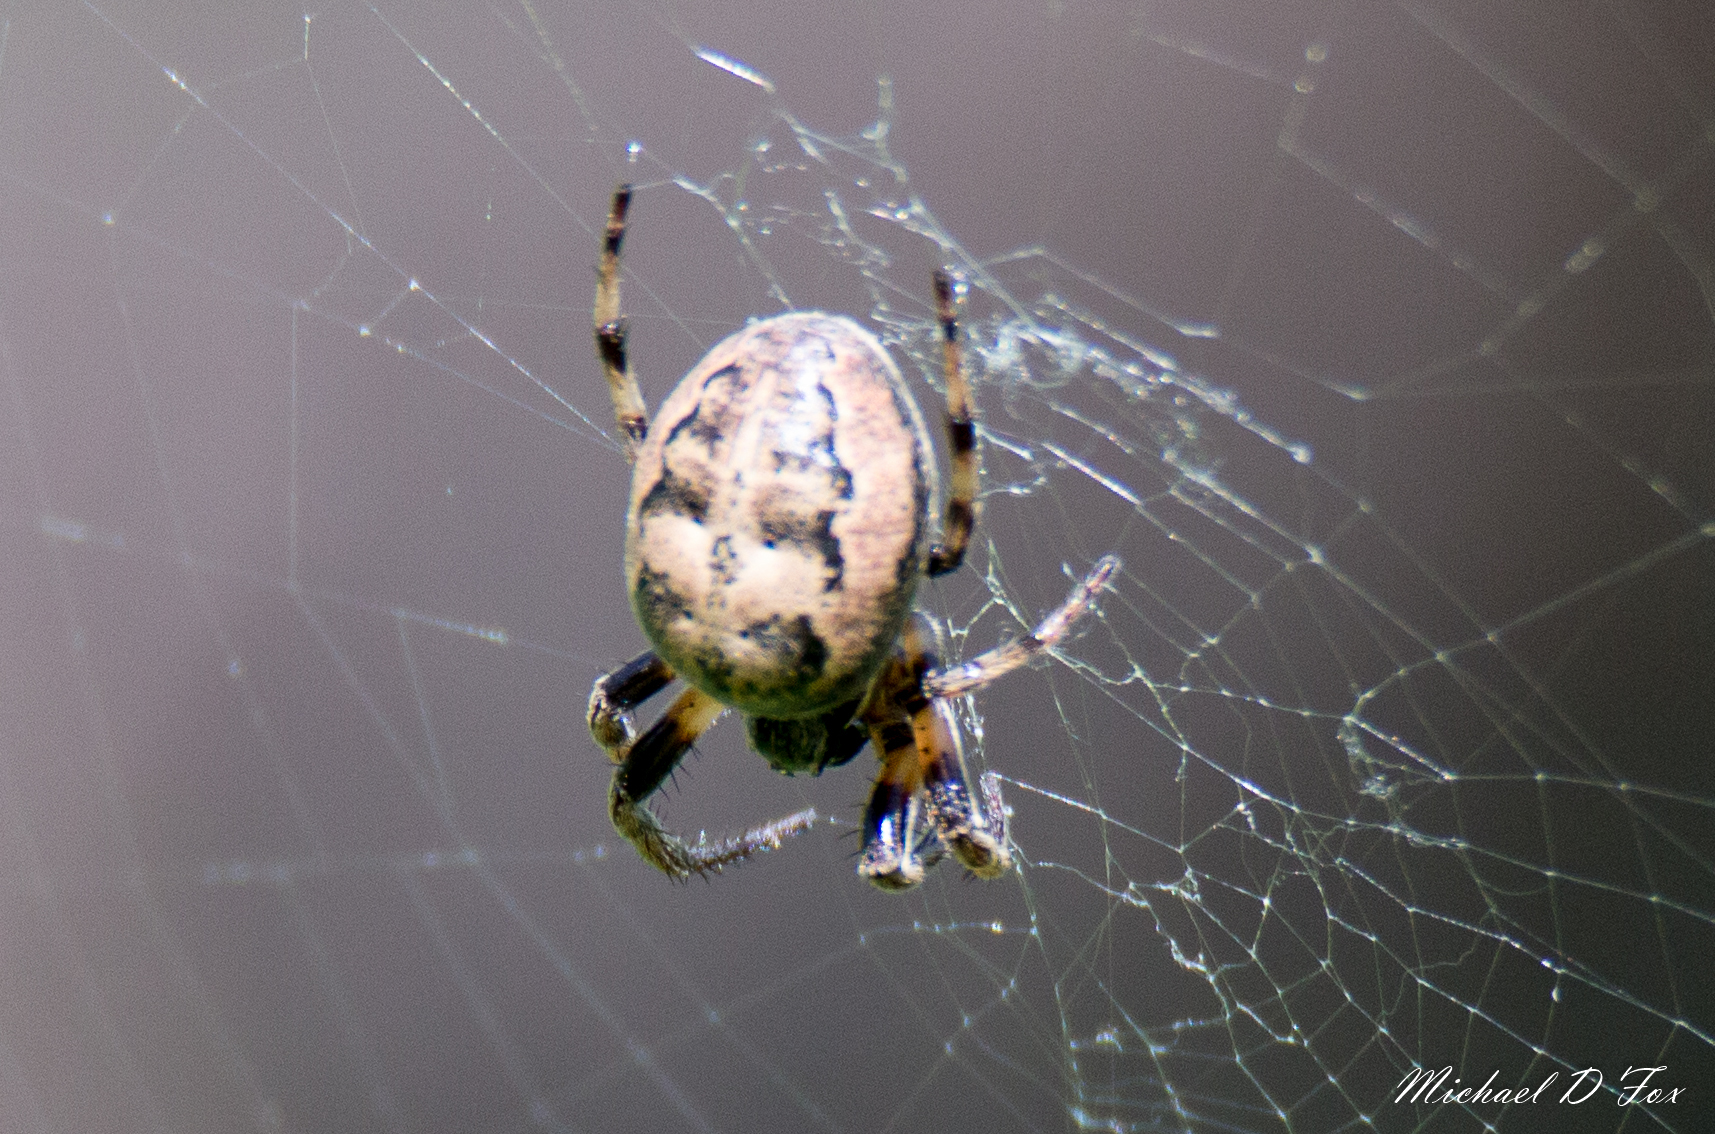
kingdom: Animalia
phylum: Arthropoda
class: Arachnida
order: Araneae
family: Araneidae
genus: Larinioides
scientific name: Larinioides cornutus
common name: Furrow orbweaver
